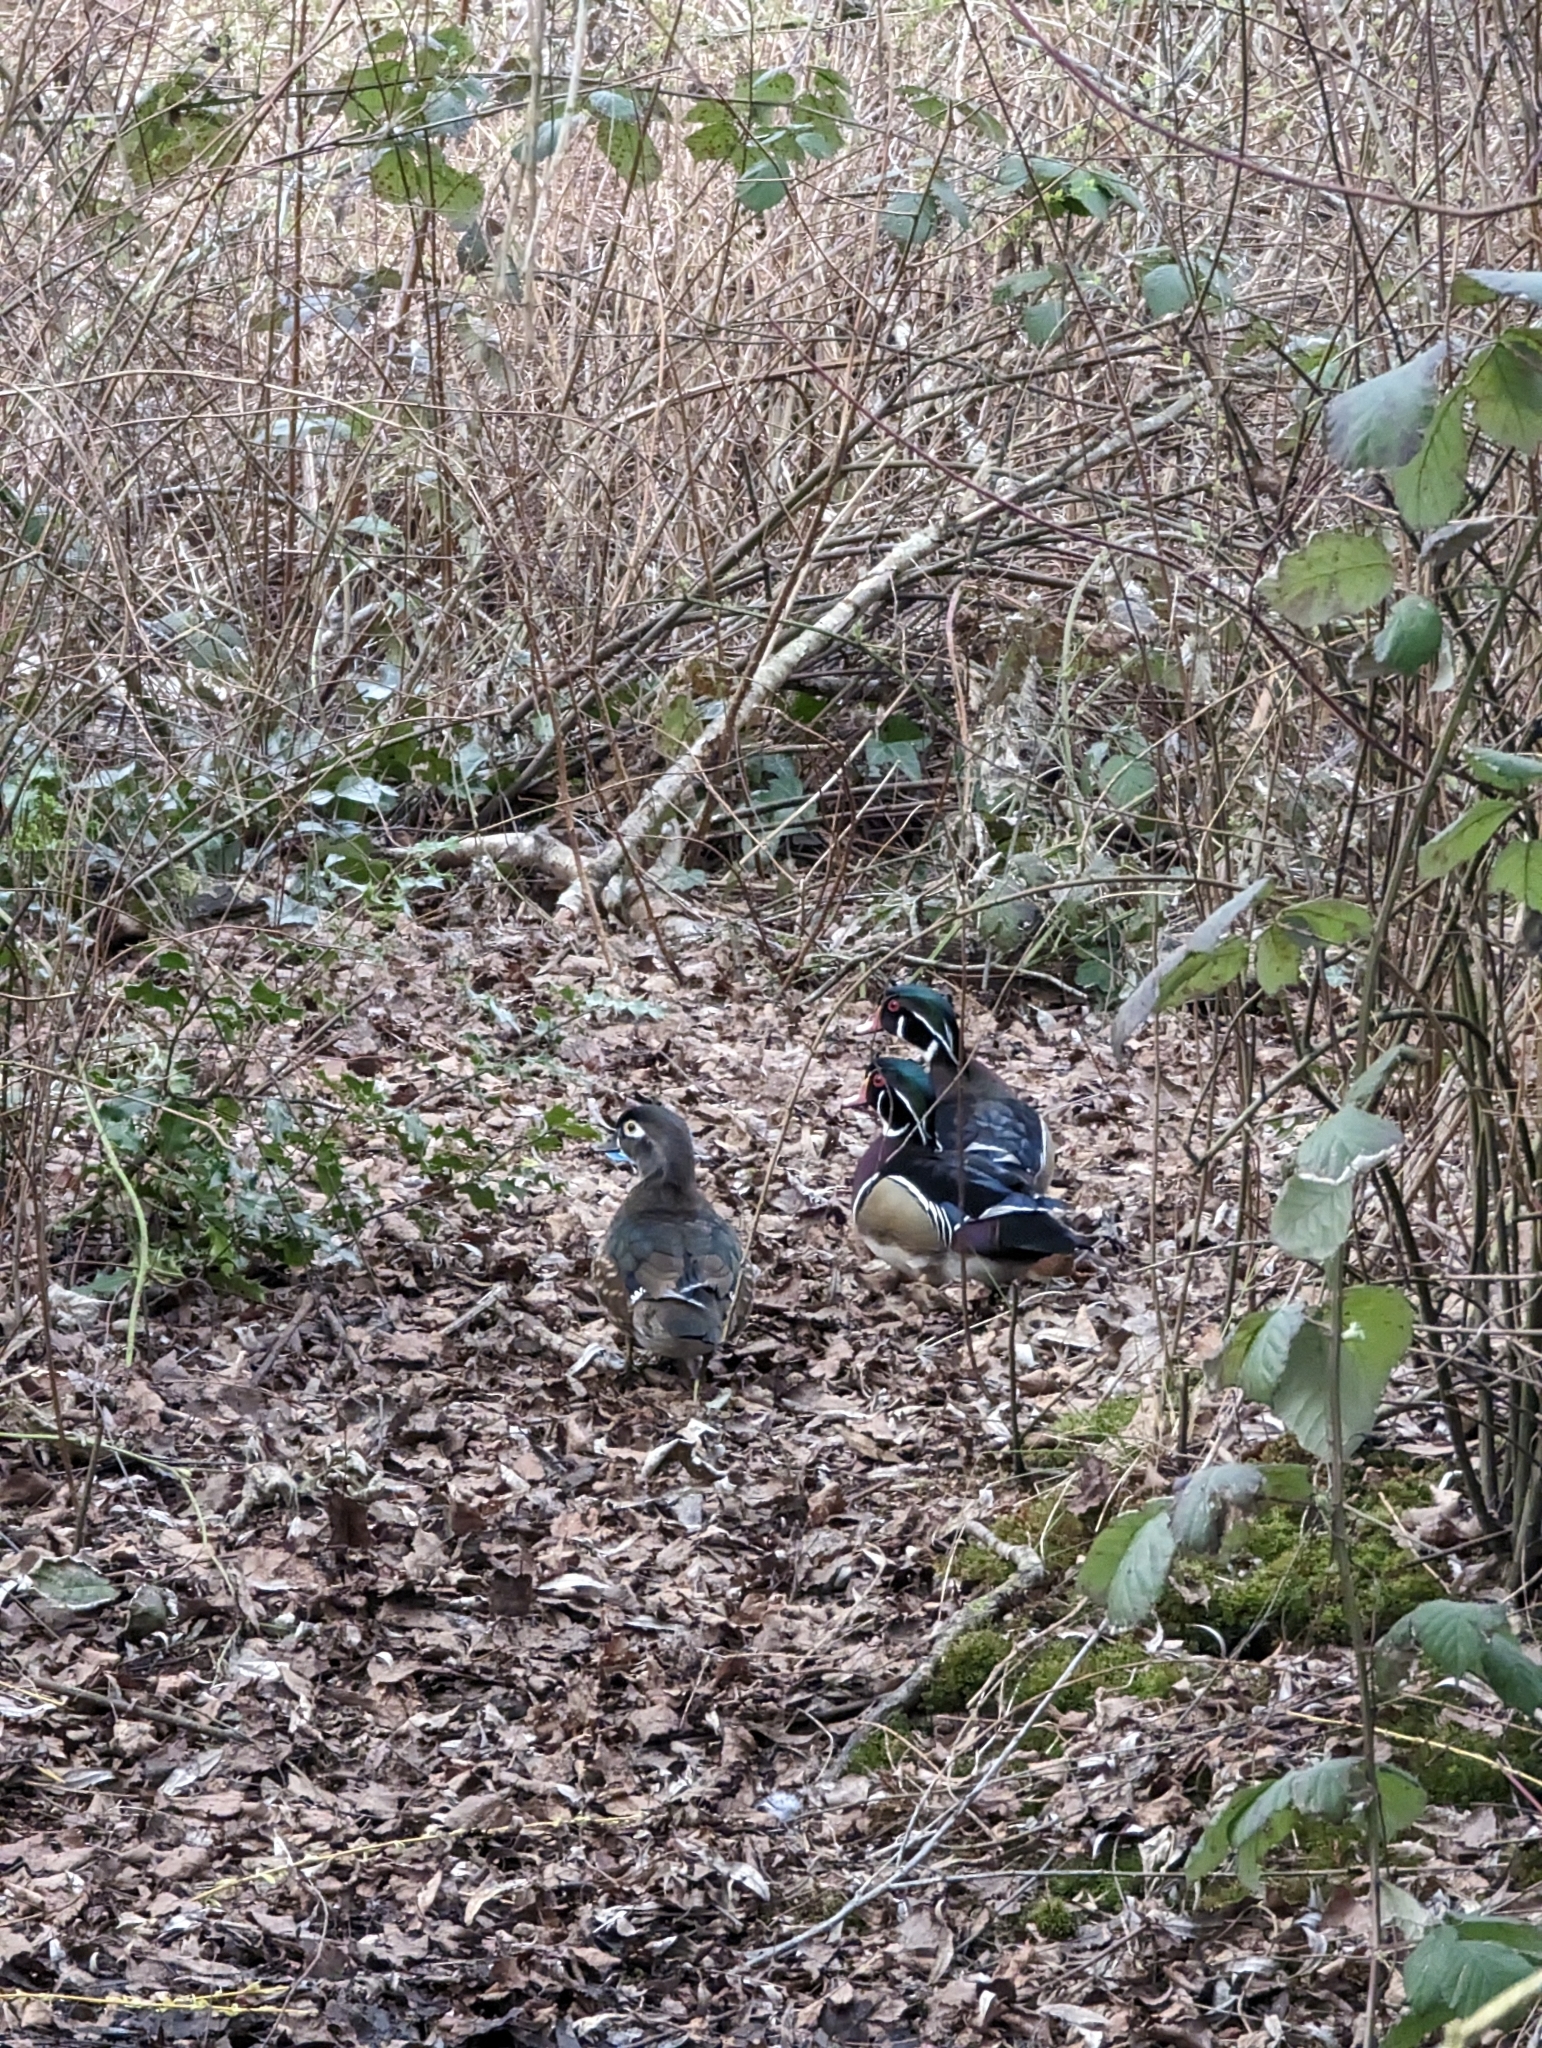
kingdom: Animalia
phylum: Chordata
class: Aves
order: Anseriformes
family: Anatidae
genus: Aix
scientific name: Aix sponsa
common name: Wood duck
